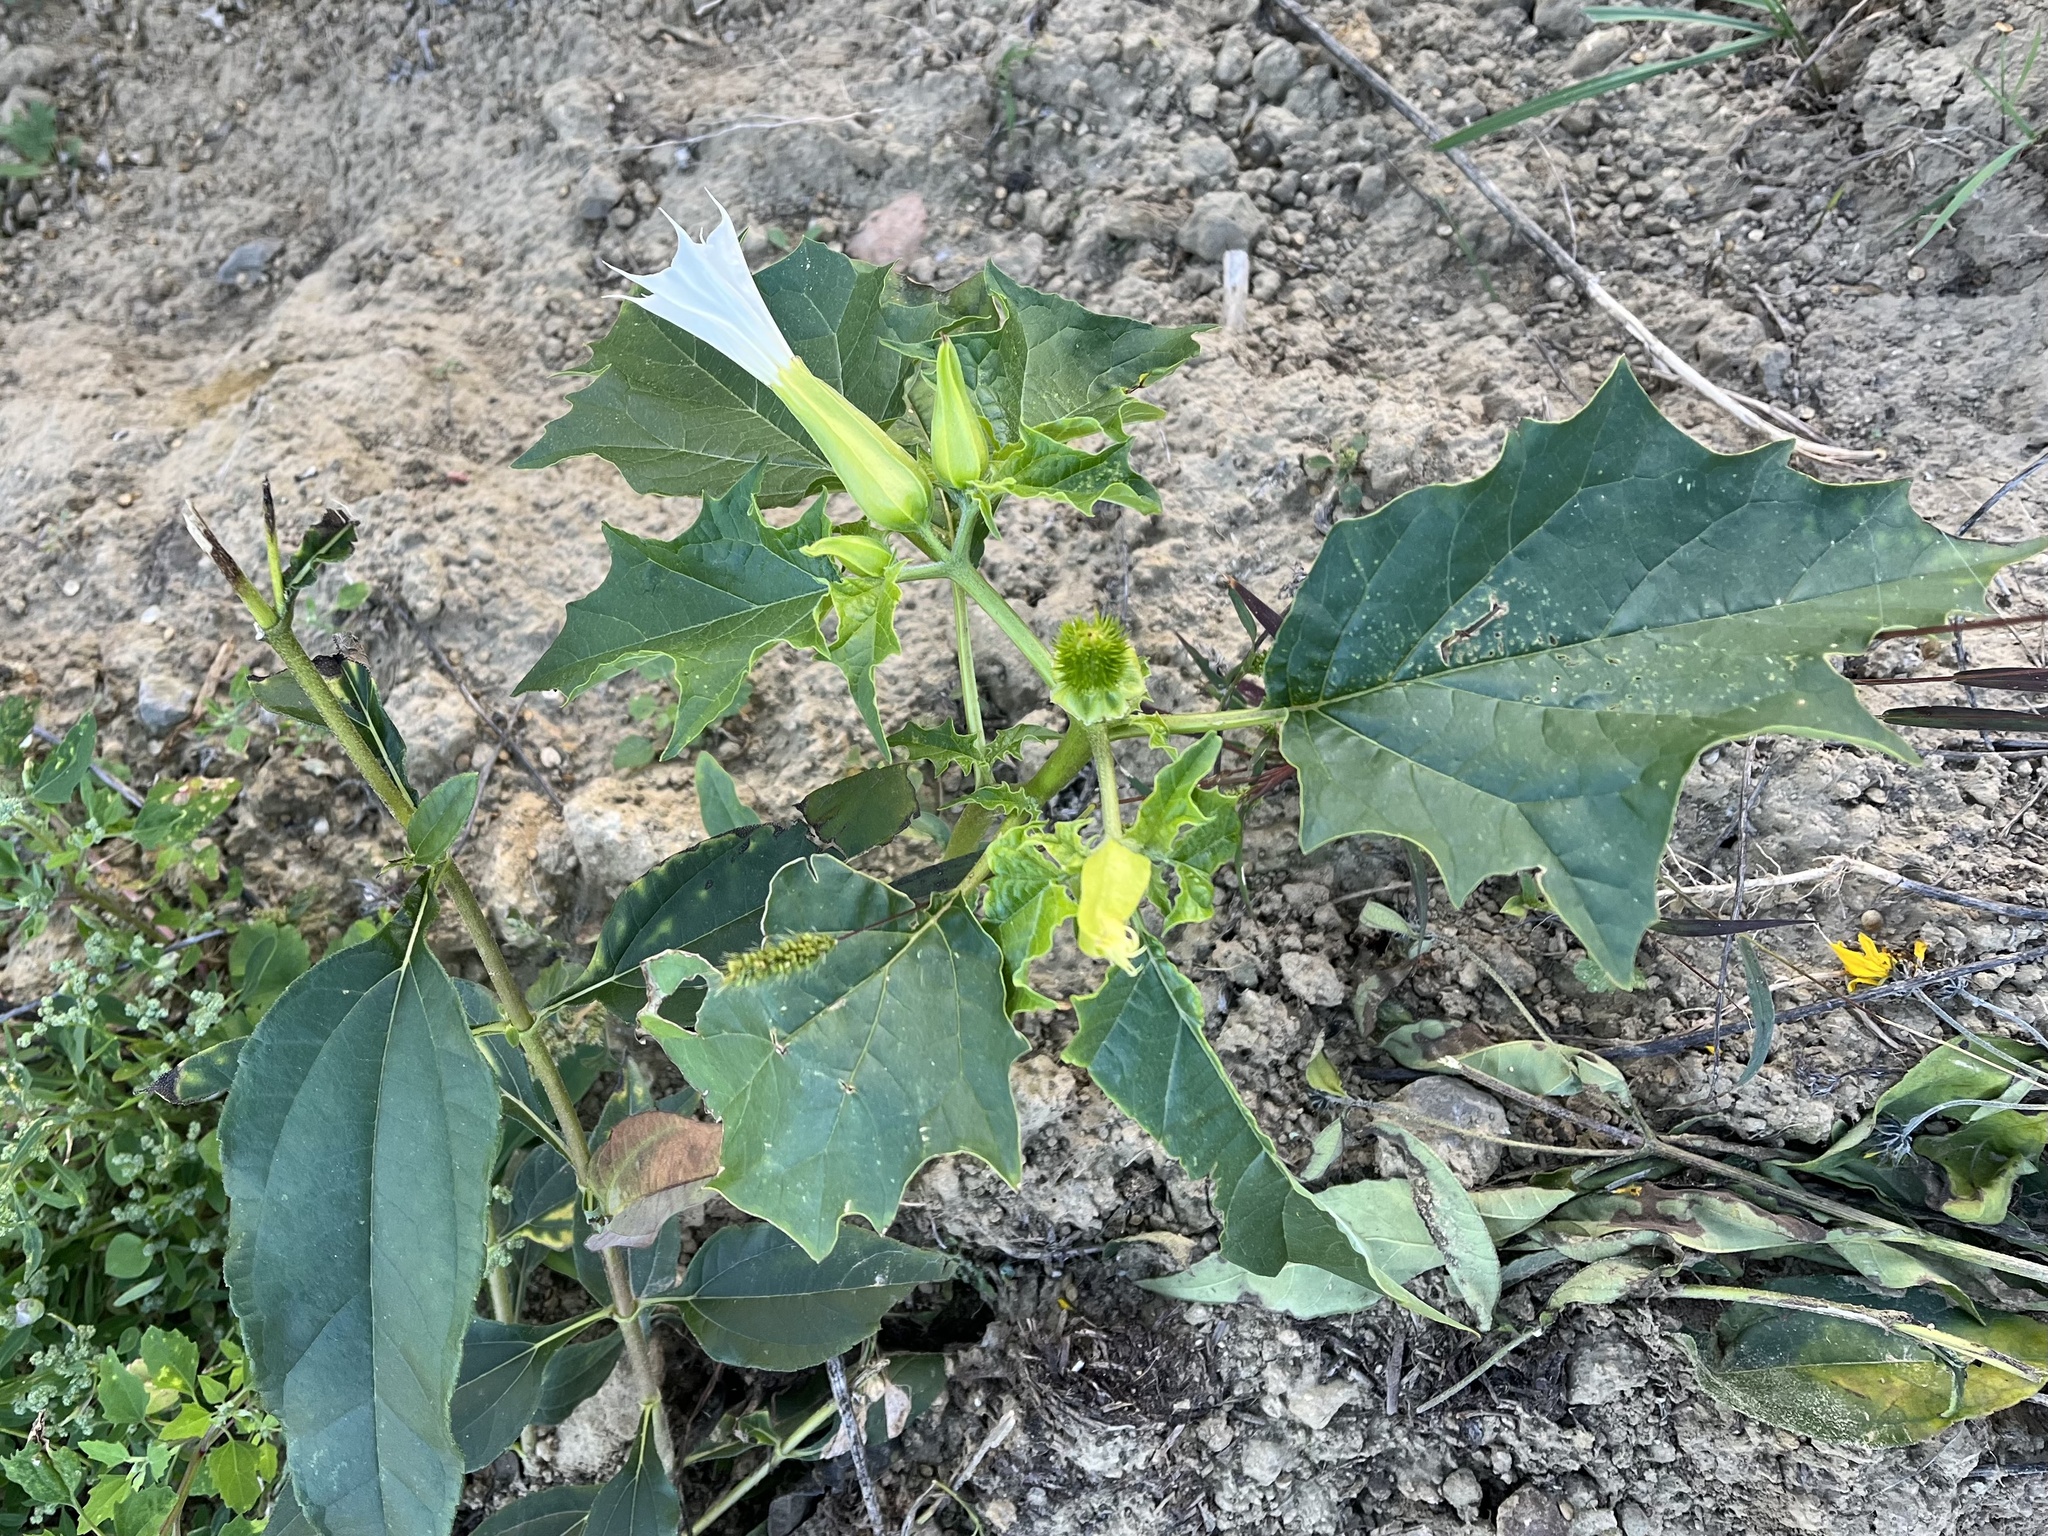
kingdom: Plantae
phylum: Tracheophyta
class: Magnoliopsida
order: Solanales
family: Solanaceae
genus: Datura
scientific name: Datura stramonium
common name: Thorn-apple
